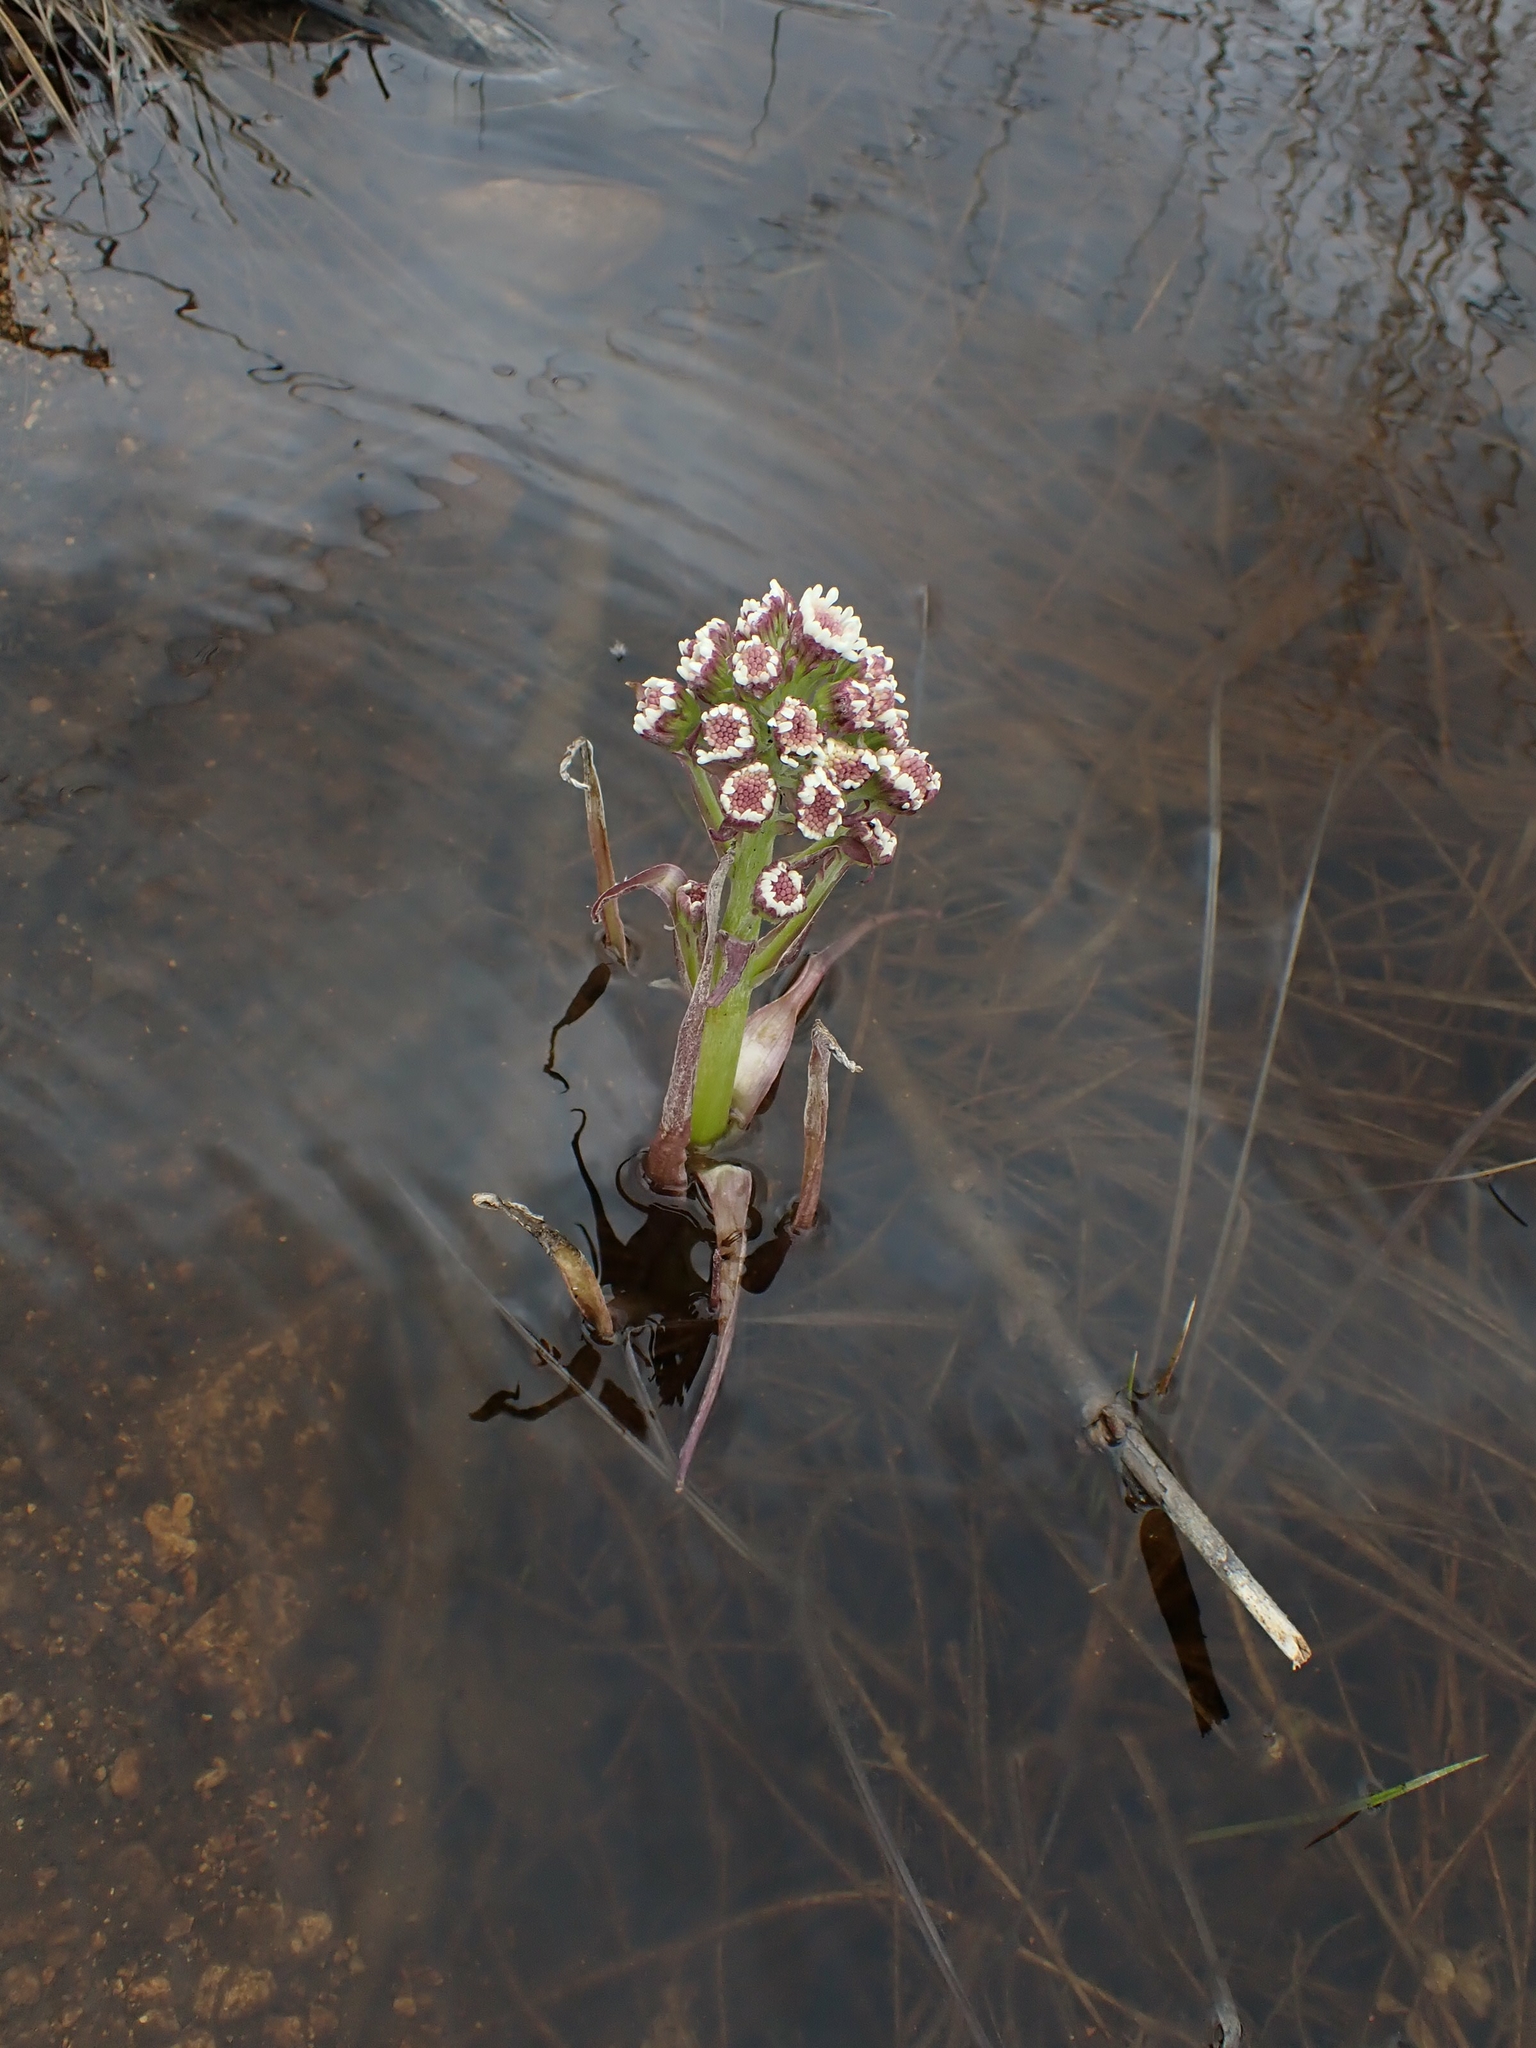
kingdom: Plantae
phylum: Tracheophyta
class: Magnoliopsida
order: Asterales
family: Asteraceae
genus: Petasites
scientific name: Petasites frigidus
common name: Arctic butterbur
